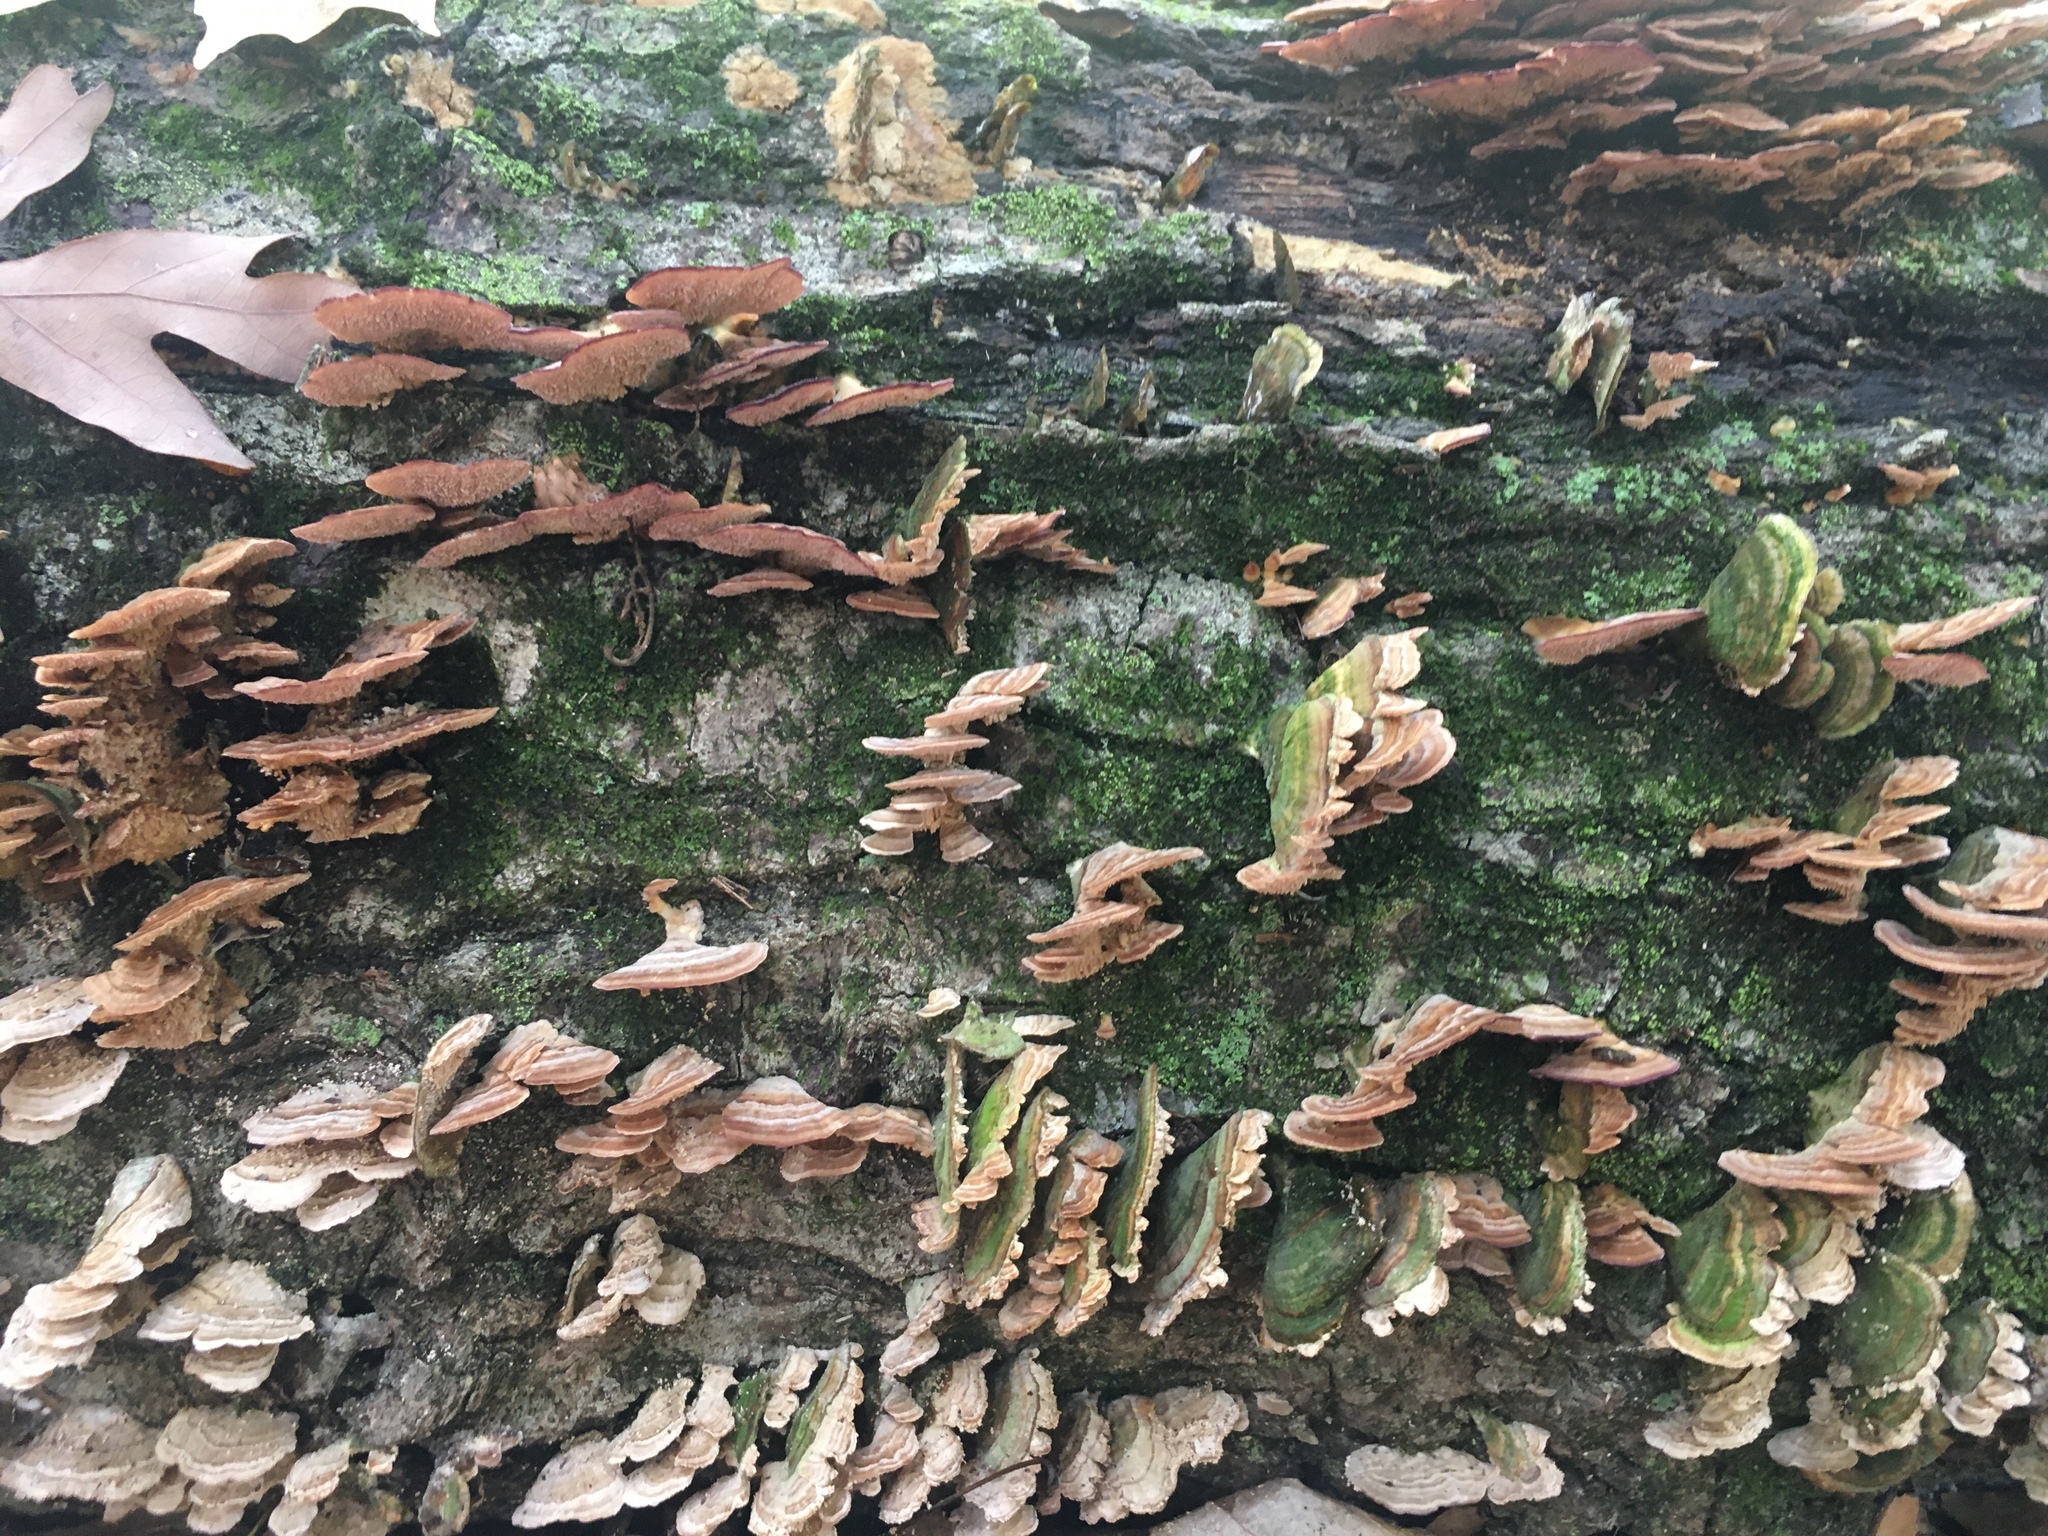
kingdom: Fungi
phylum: Basidiomycota
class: Agaricomycetes
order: Hymenochaetales
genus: Trichaptum
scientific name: Trichaptum biforme
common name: Violet-toothed polypore
